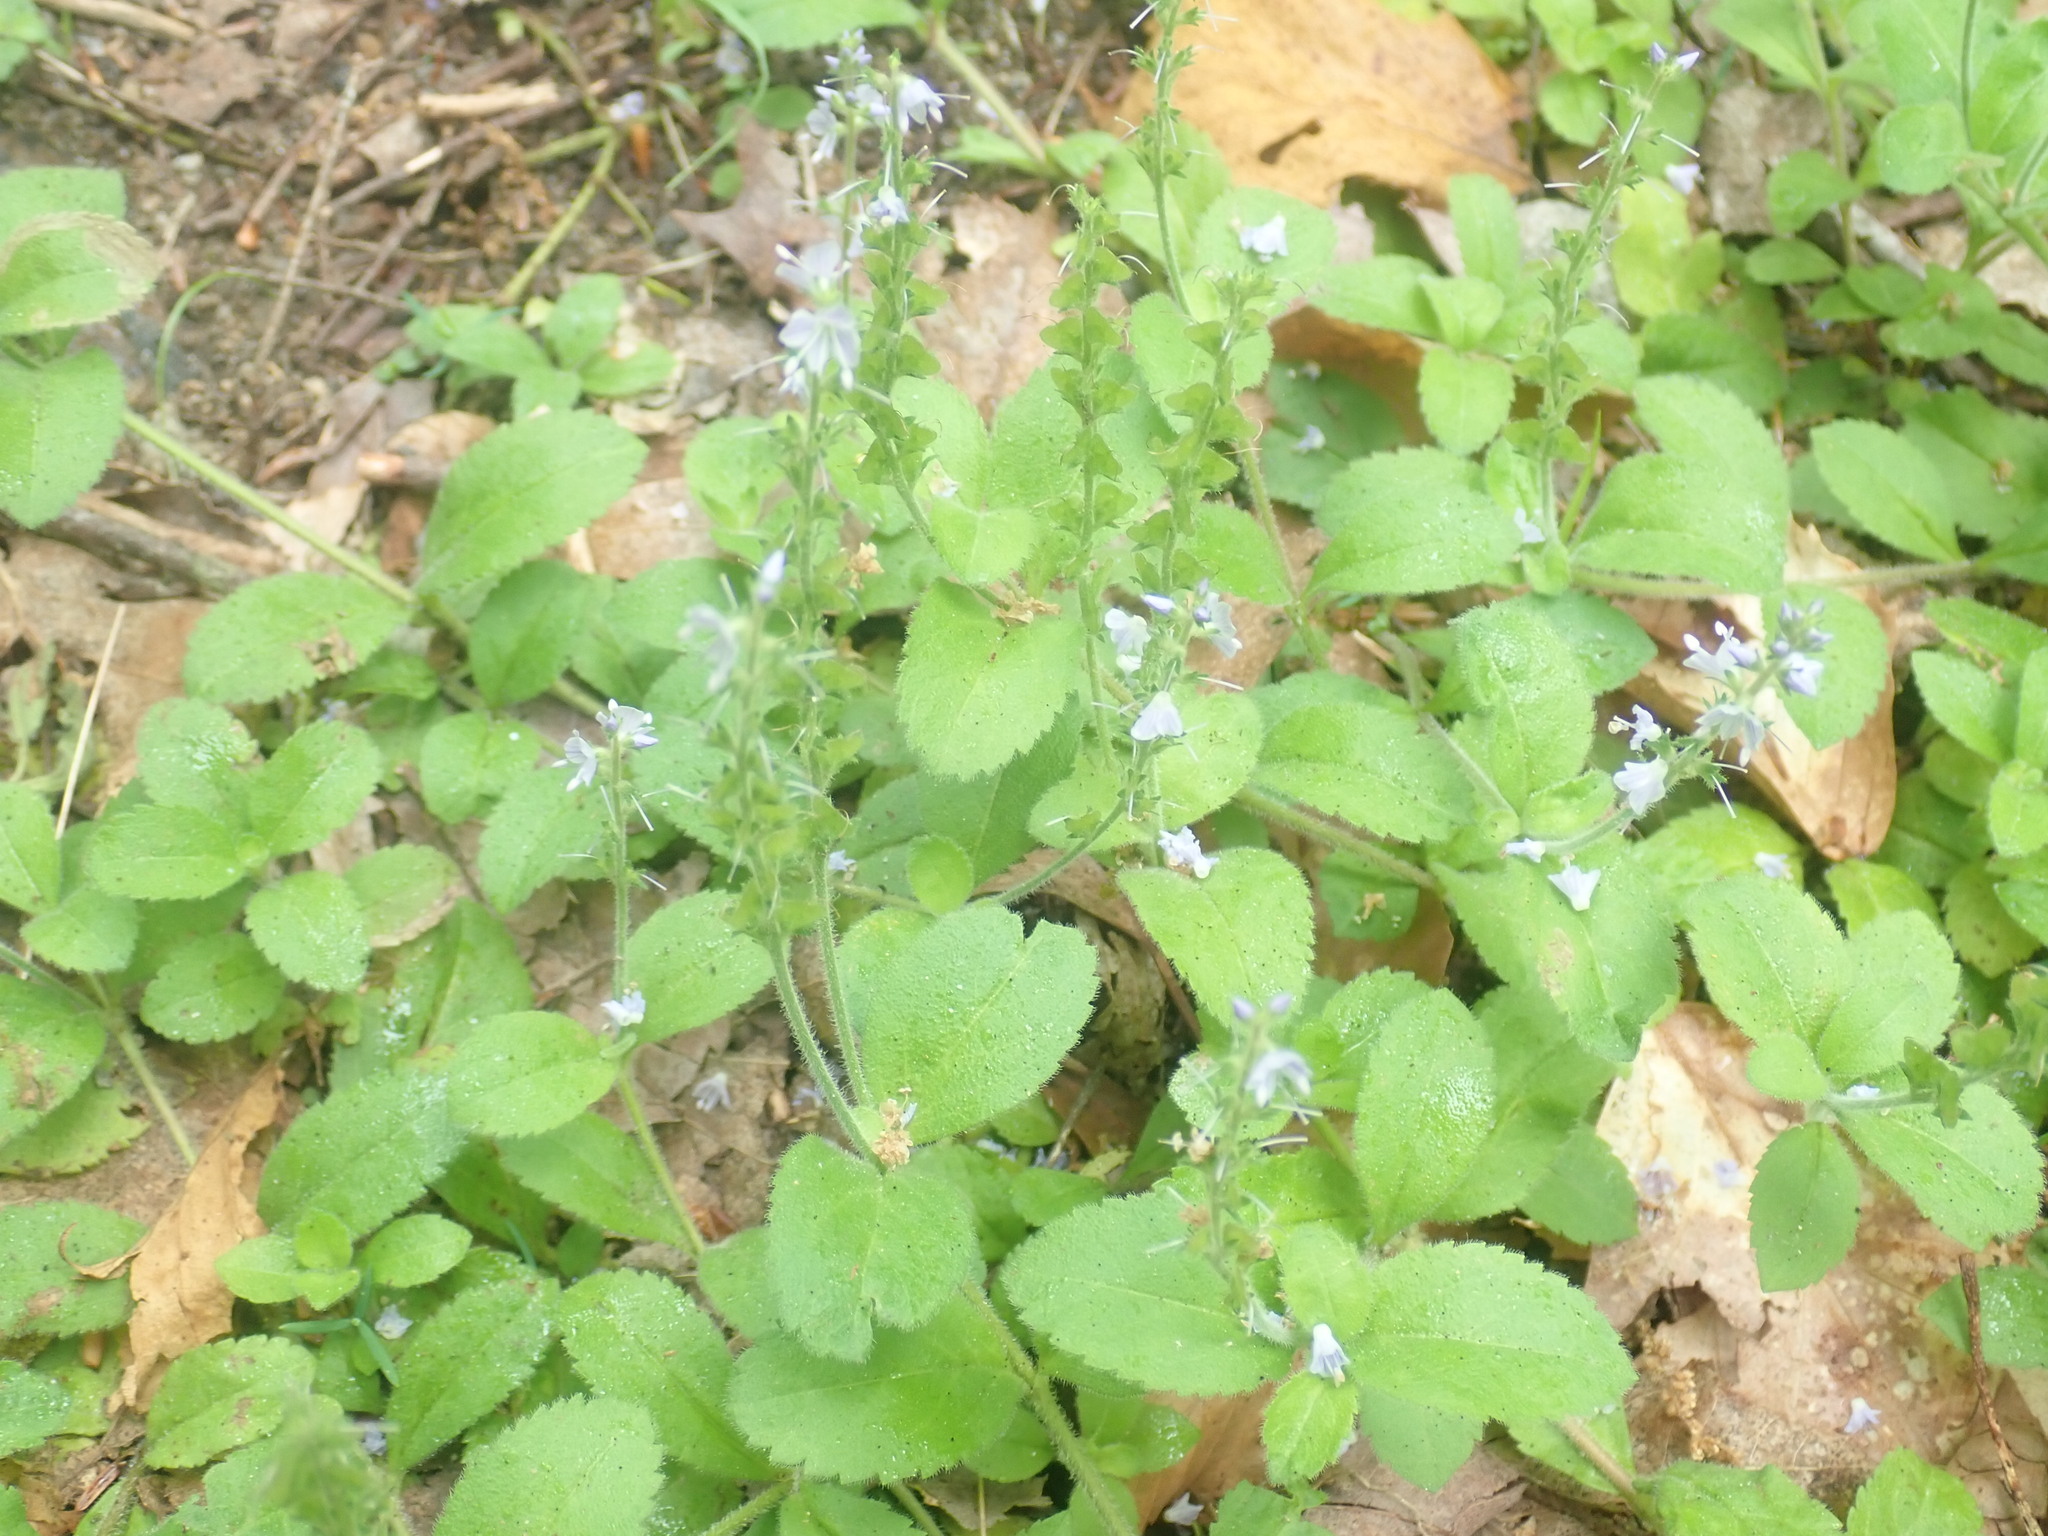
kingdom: Plantae
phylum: Tracheophyta
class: Magnoliopsida
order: Lamiales
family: Plantaginaceae
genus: Veronica
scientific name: Veronica officinalis
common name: Common speedwell
